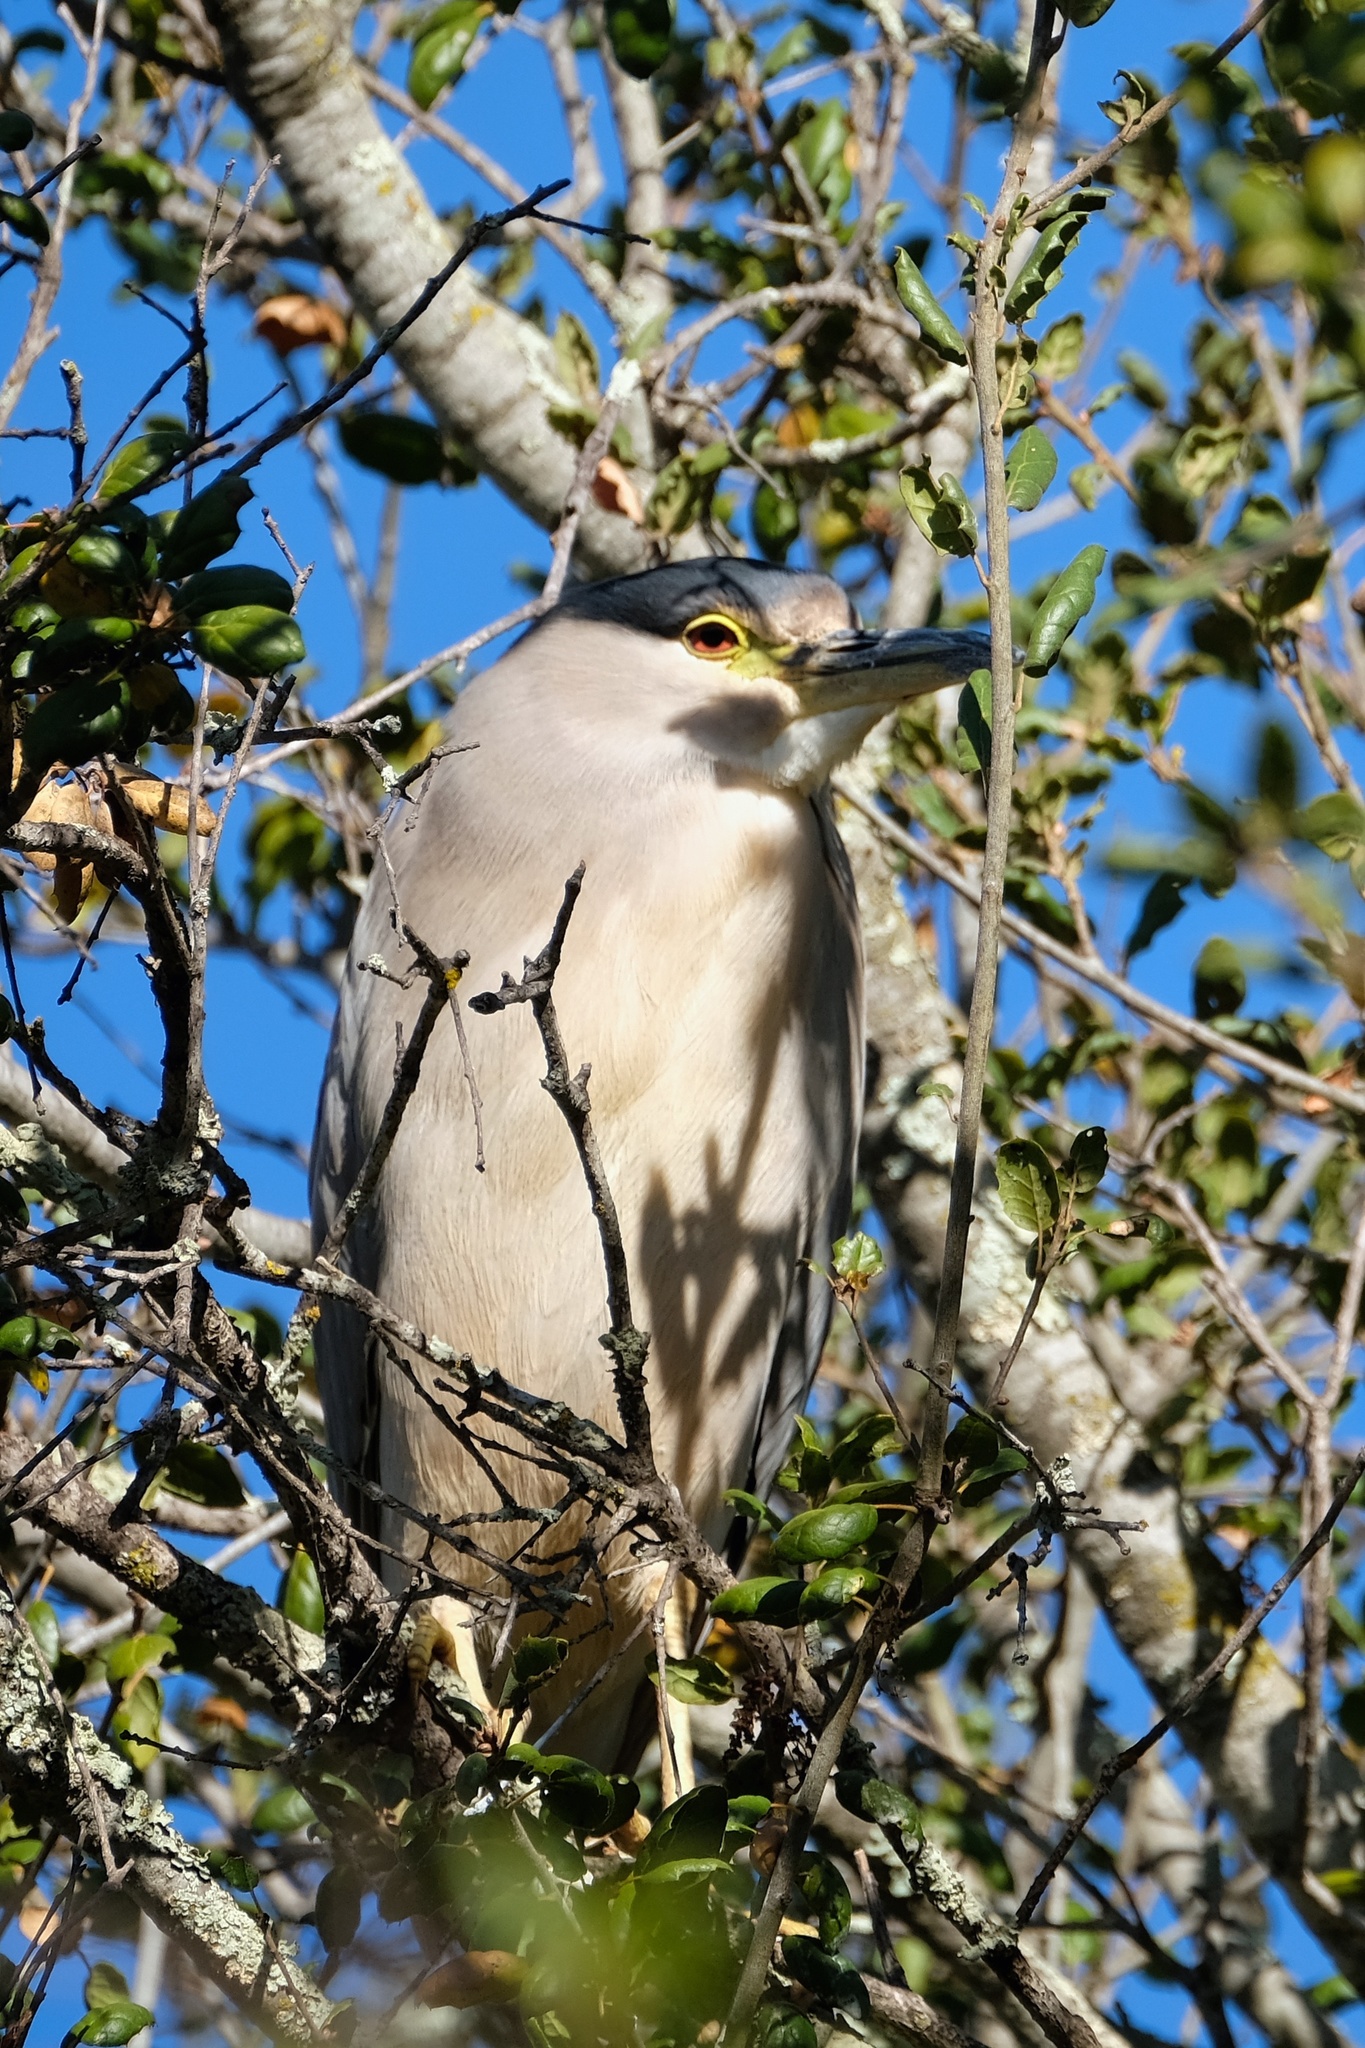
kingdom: Animalia
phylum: Chordata
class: Aves
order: Pelecaniformes
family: Ardeidae
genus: Nycticorax
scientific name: Nycticorax nycticorax
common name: Black-crowned night heron
